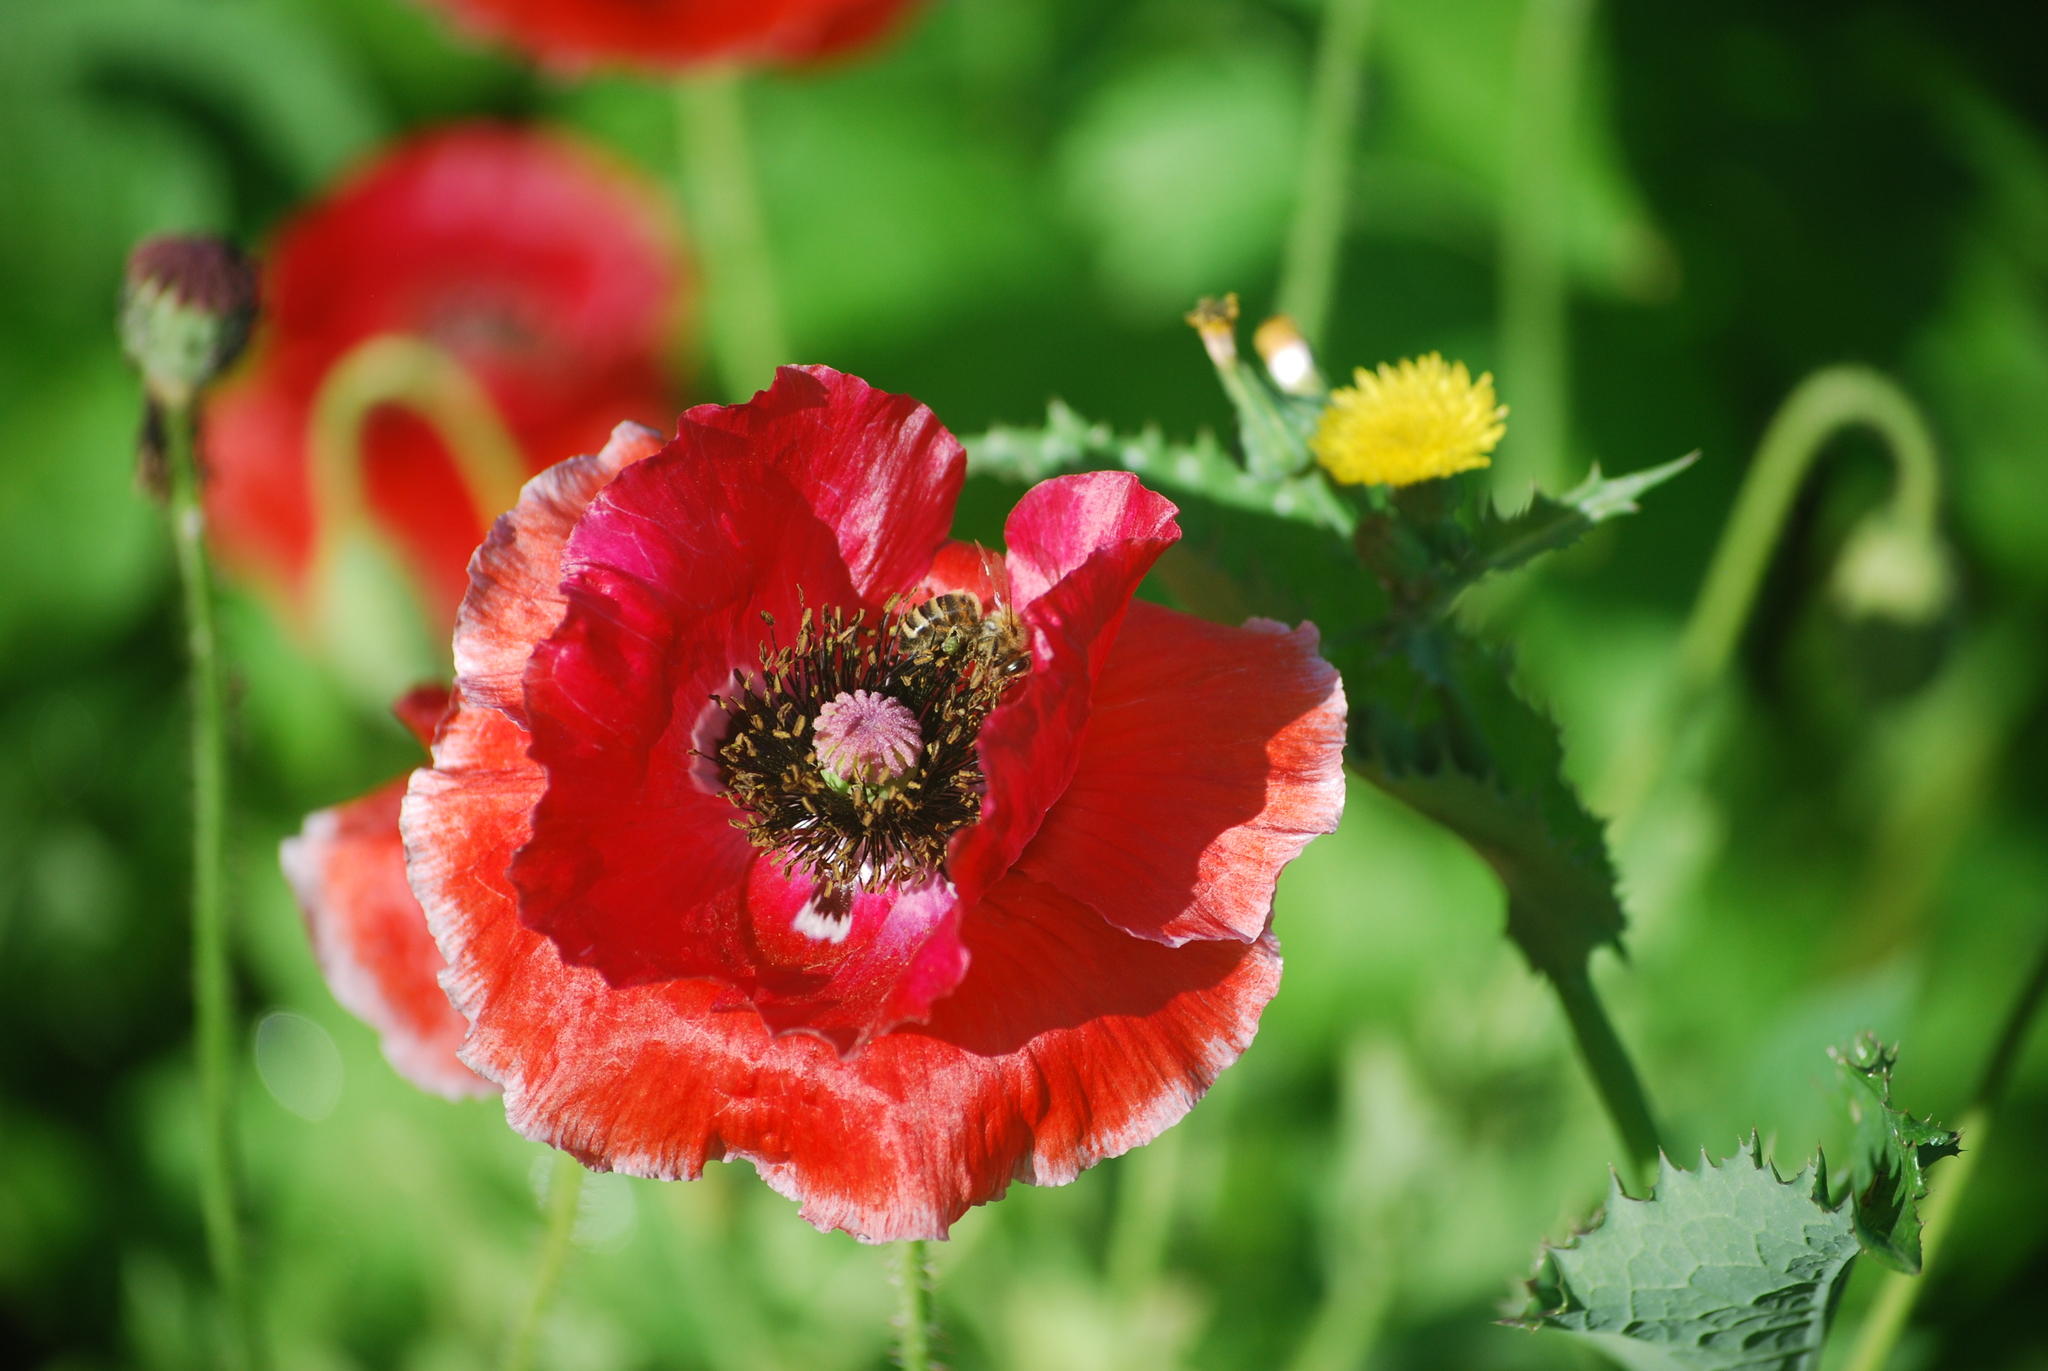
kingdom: Animalia
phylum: Arthropoda
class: Insecta
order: Hymenoptera
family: Apidae
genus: Apis
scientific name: Apis mellifera
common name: Honey bee
